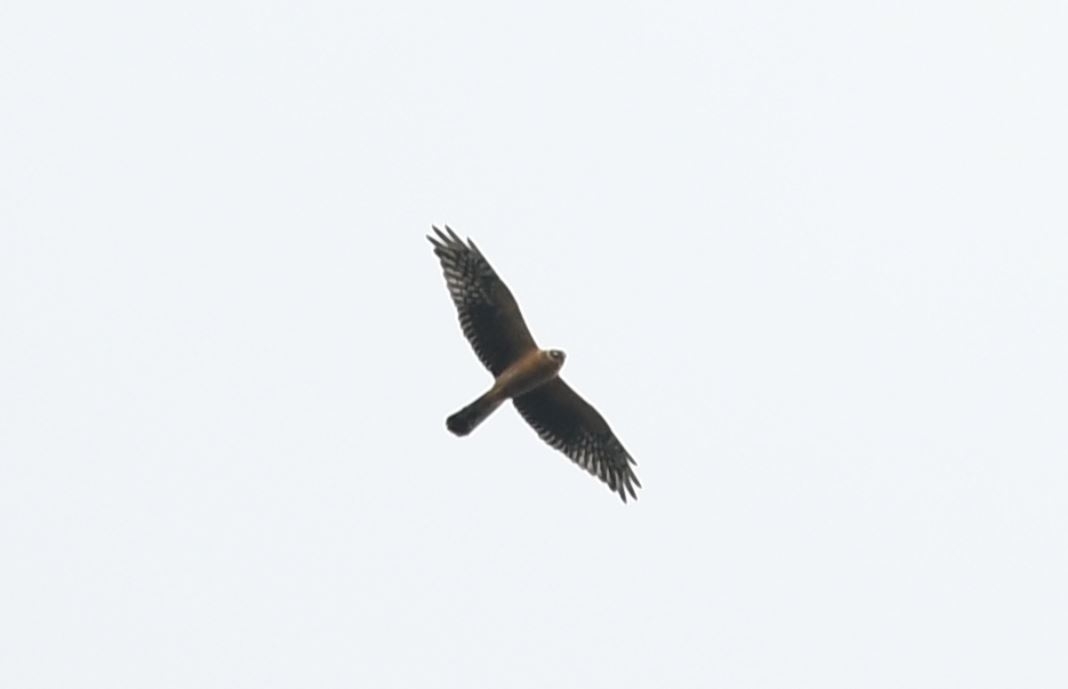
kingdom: Animalia
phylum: Chordata
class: Aves
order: Accipitriformes
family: Accipitridae
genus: Circus
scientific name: Circus macrourus
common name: Pallid harrier
